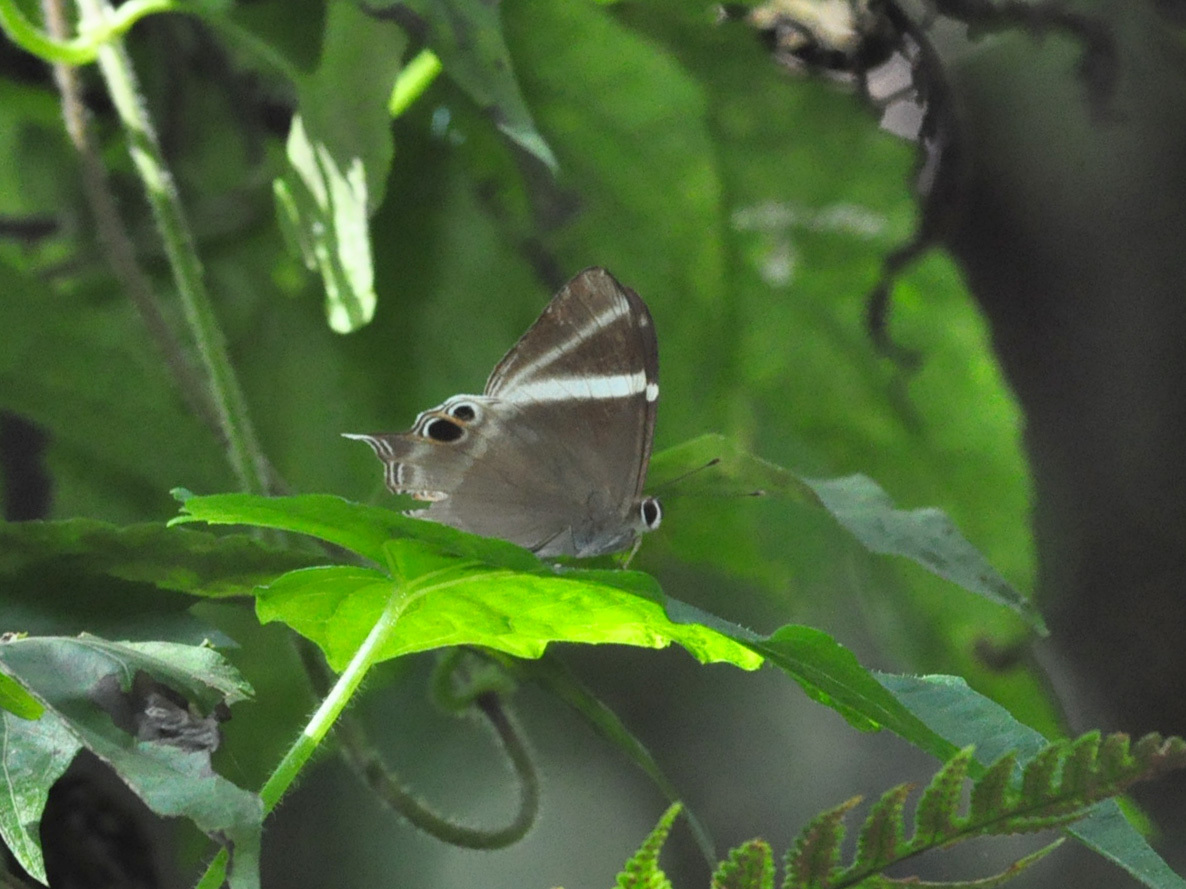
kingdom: Animalia
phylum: Arthropoda
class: Insecta
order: Lepidoptera
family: Lycaenidae
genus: Abisara
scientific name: Abisara neophron
